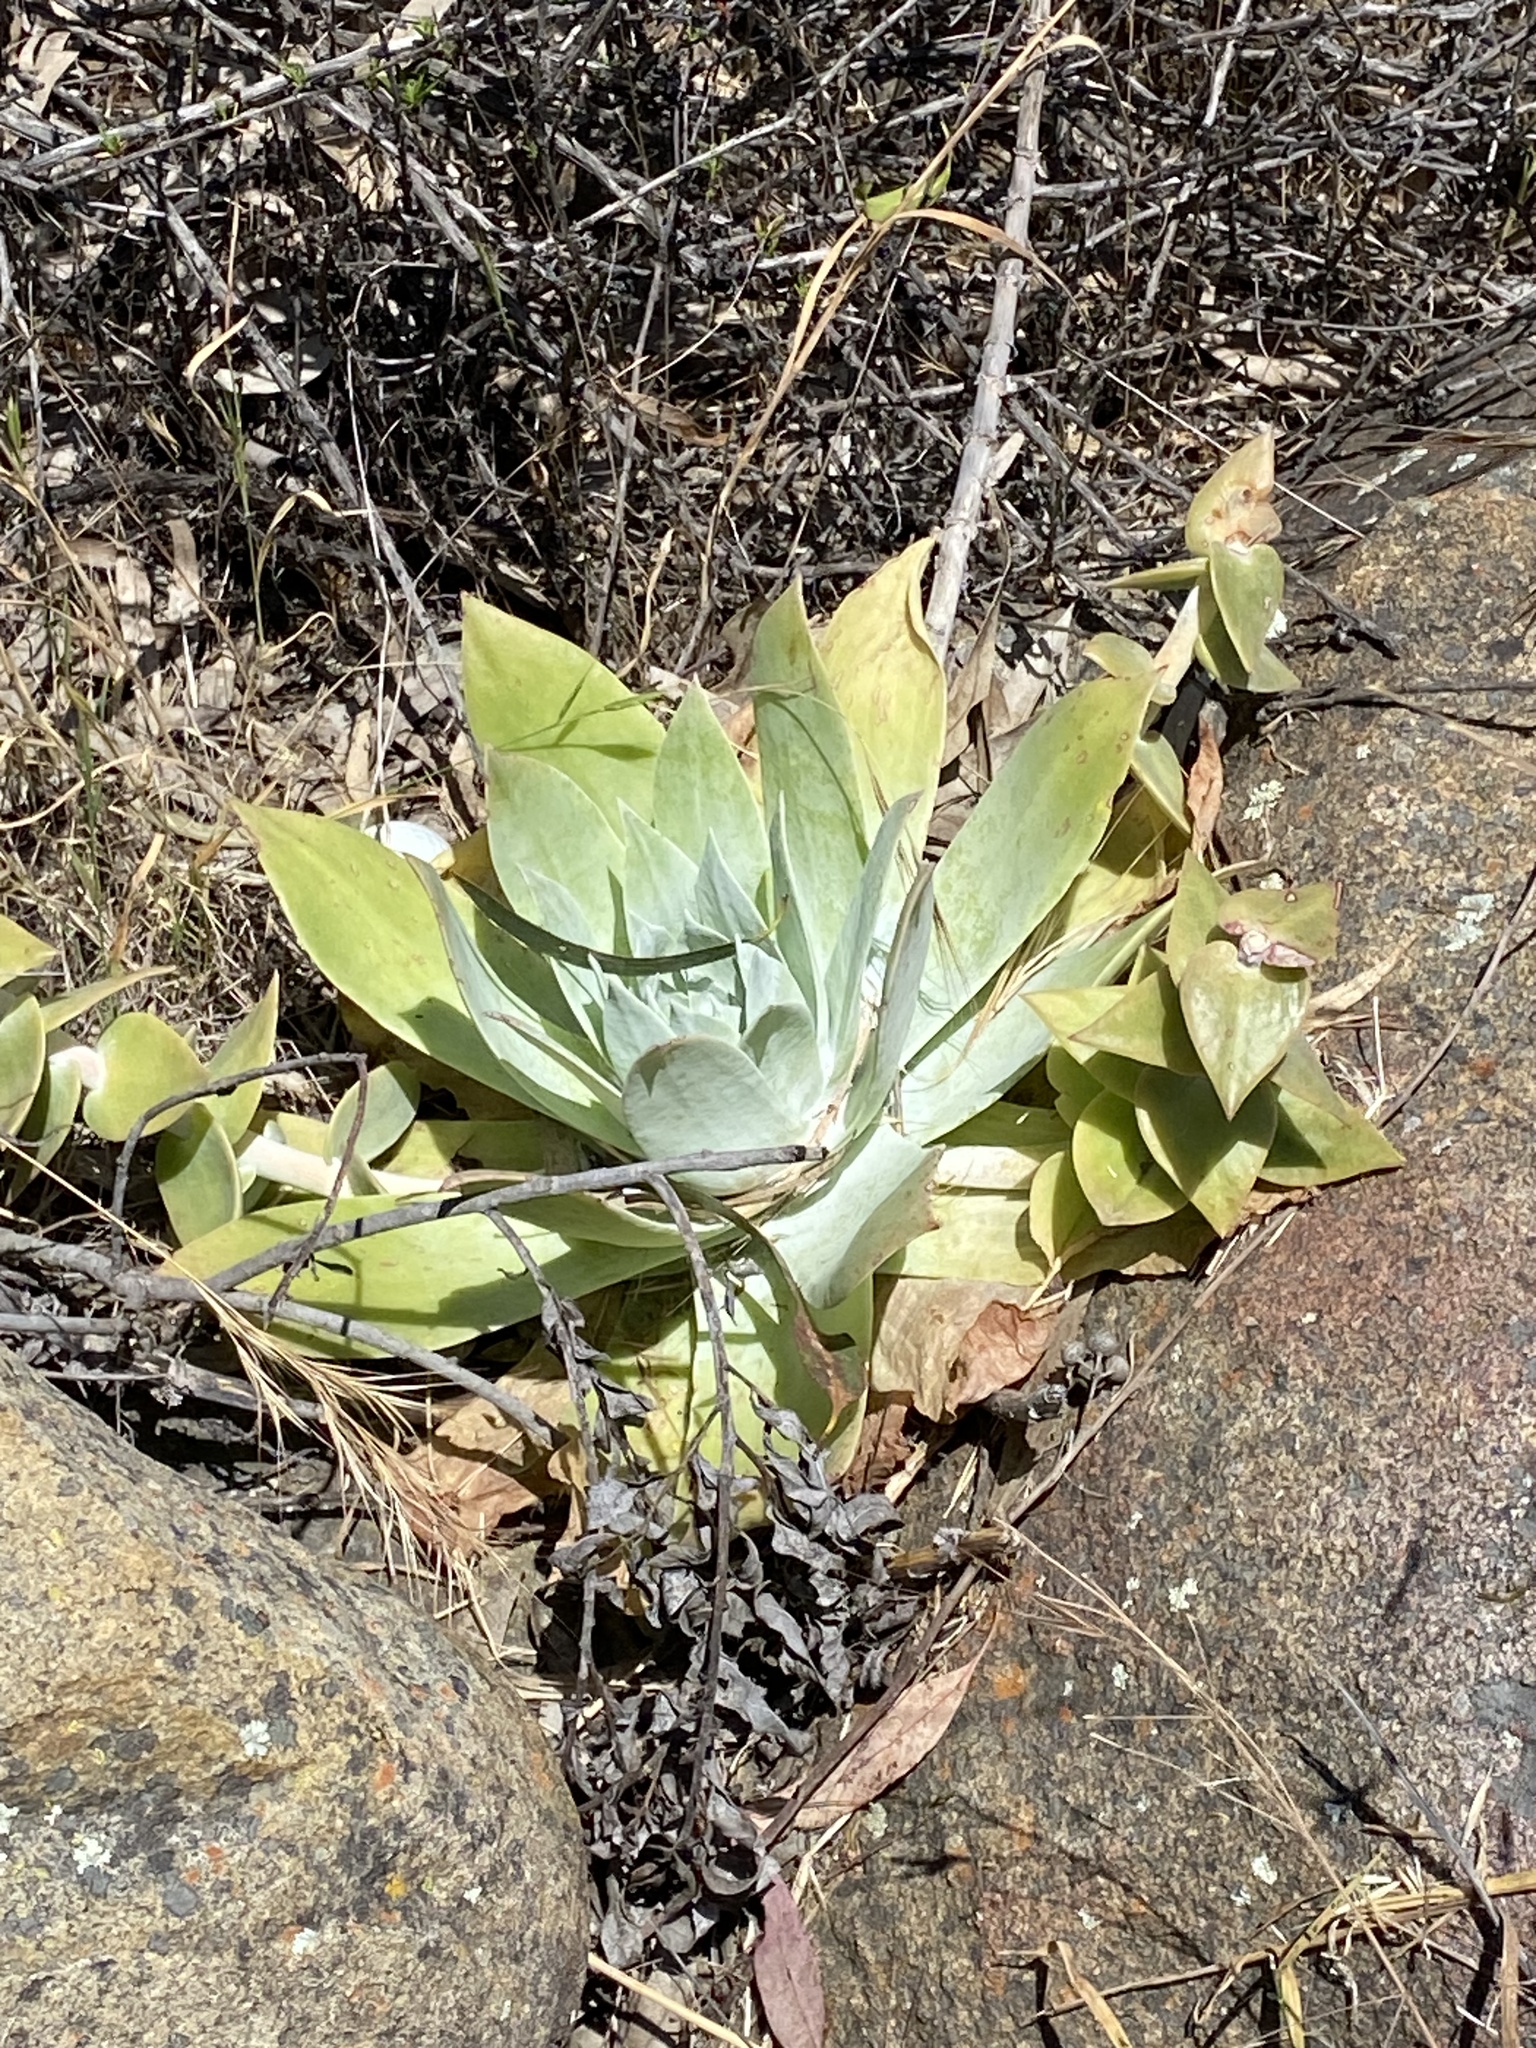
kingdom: Plantae
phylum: Tracheophyta
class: Magnoliopsida
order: Saxifragales
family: Crassulaceae
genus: Dudleya
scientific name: Dudleya pulverulenta
